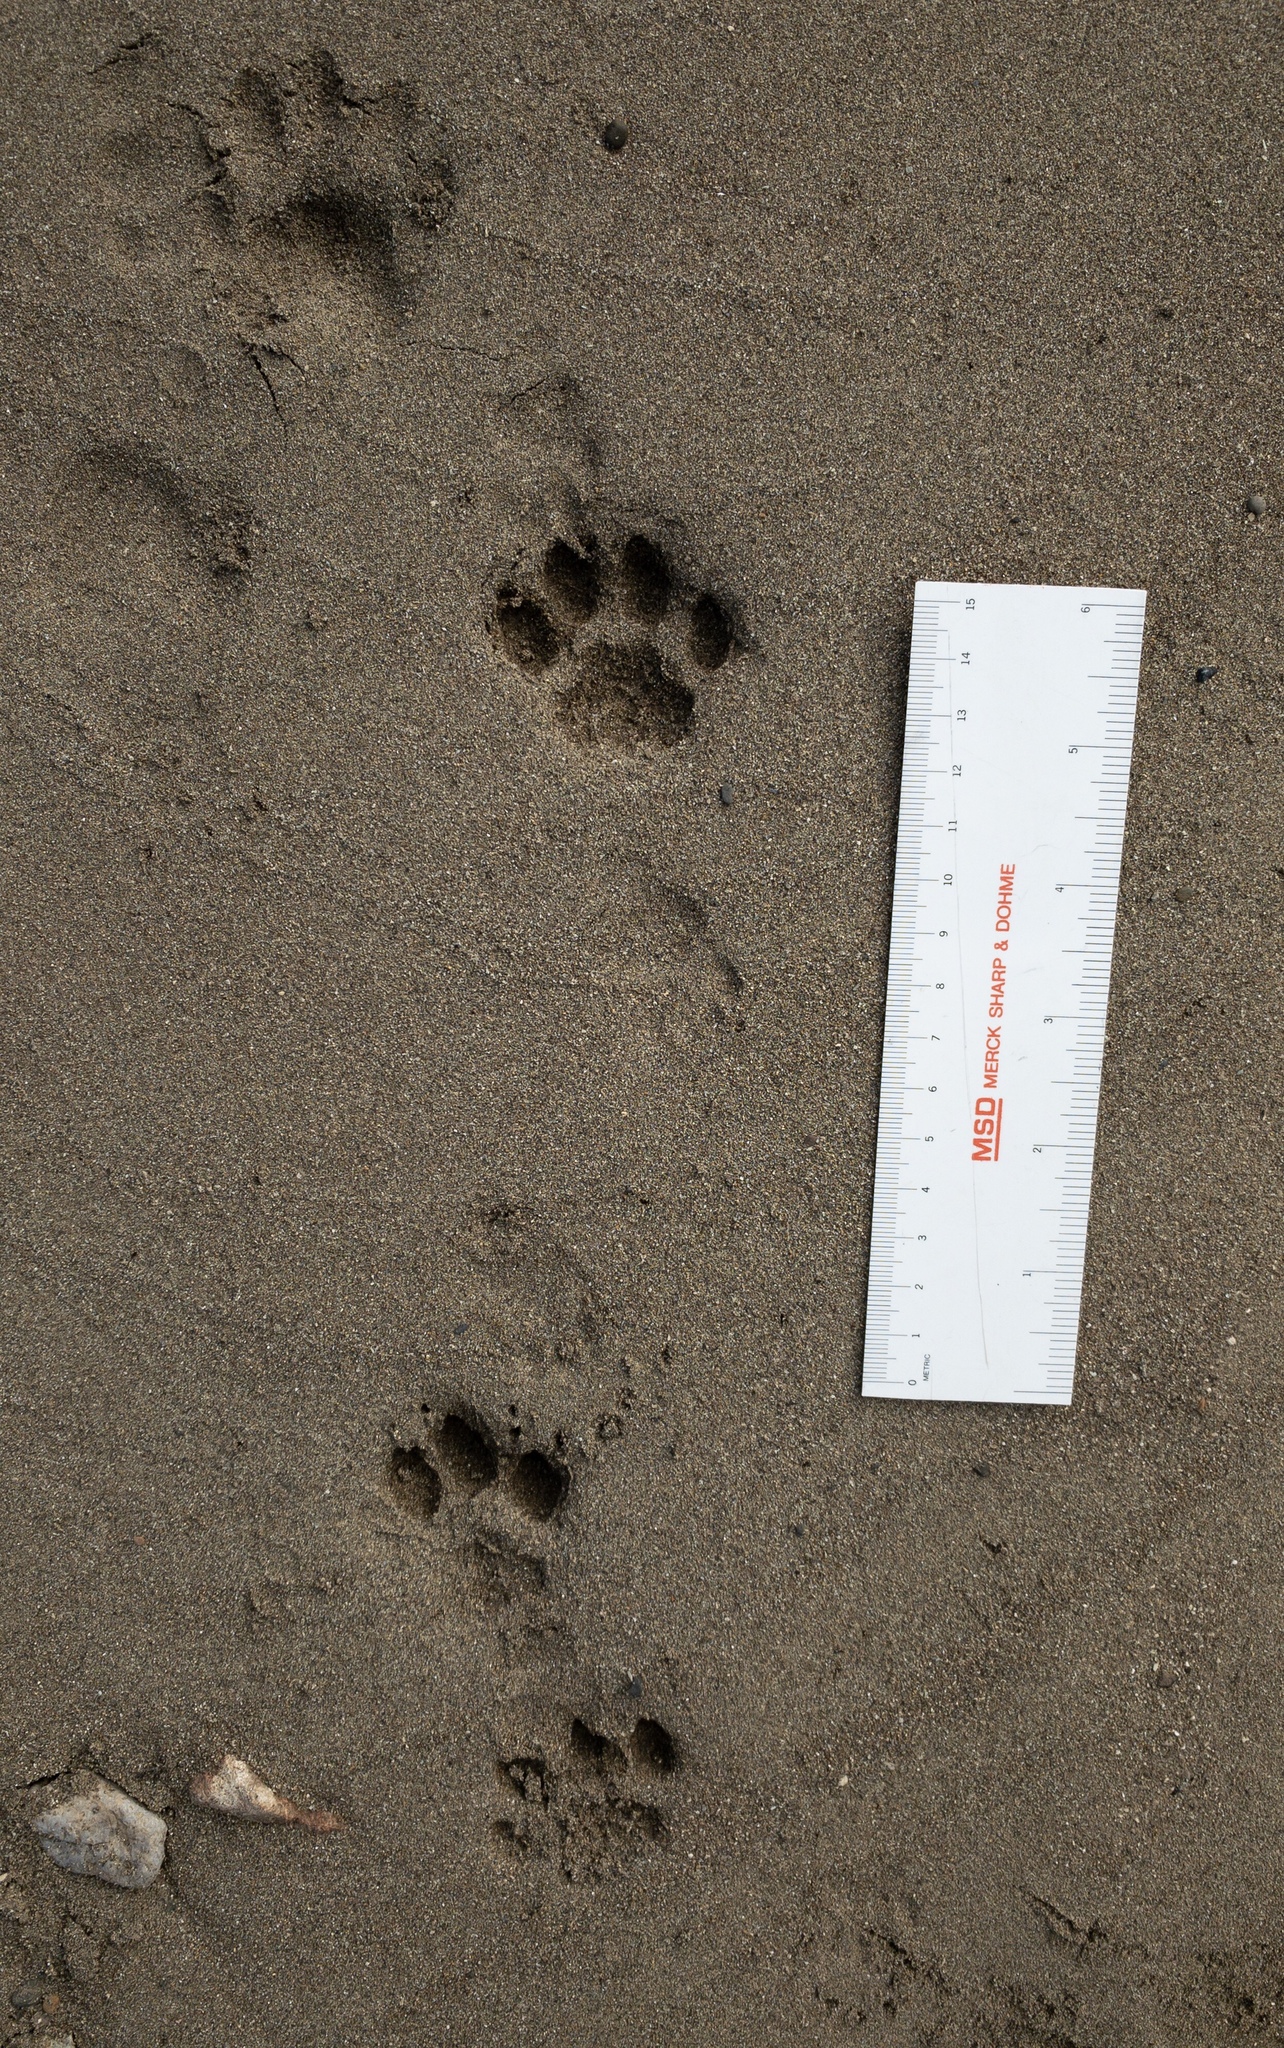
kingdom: Animalia
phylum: Chordata
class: Mammalia
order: Carnivora
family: Felidae
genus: Felis
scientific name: Felis catus
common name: Domestic cat
